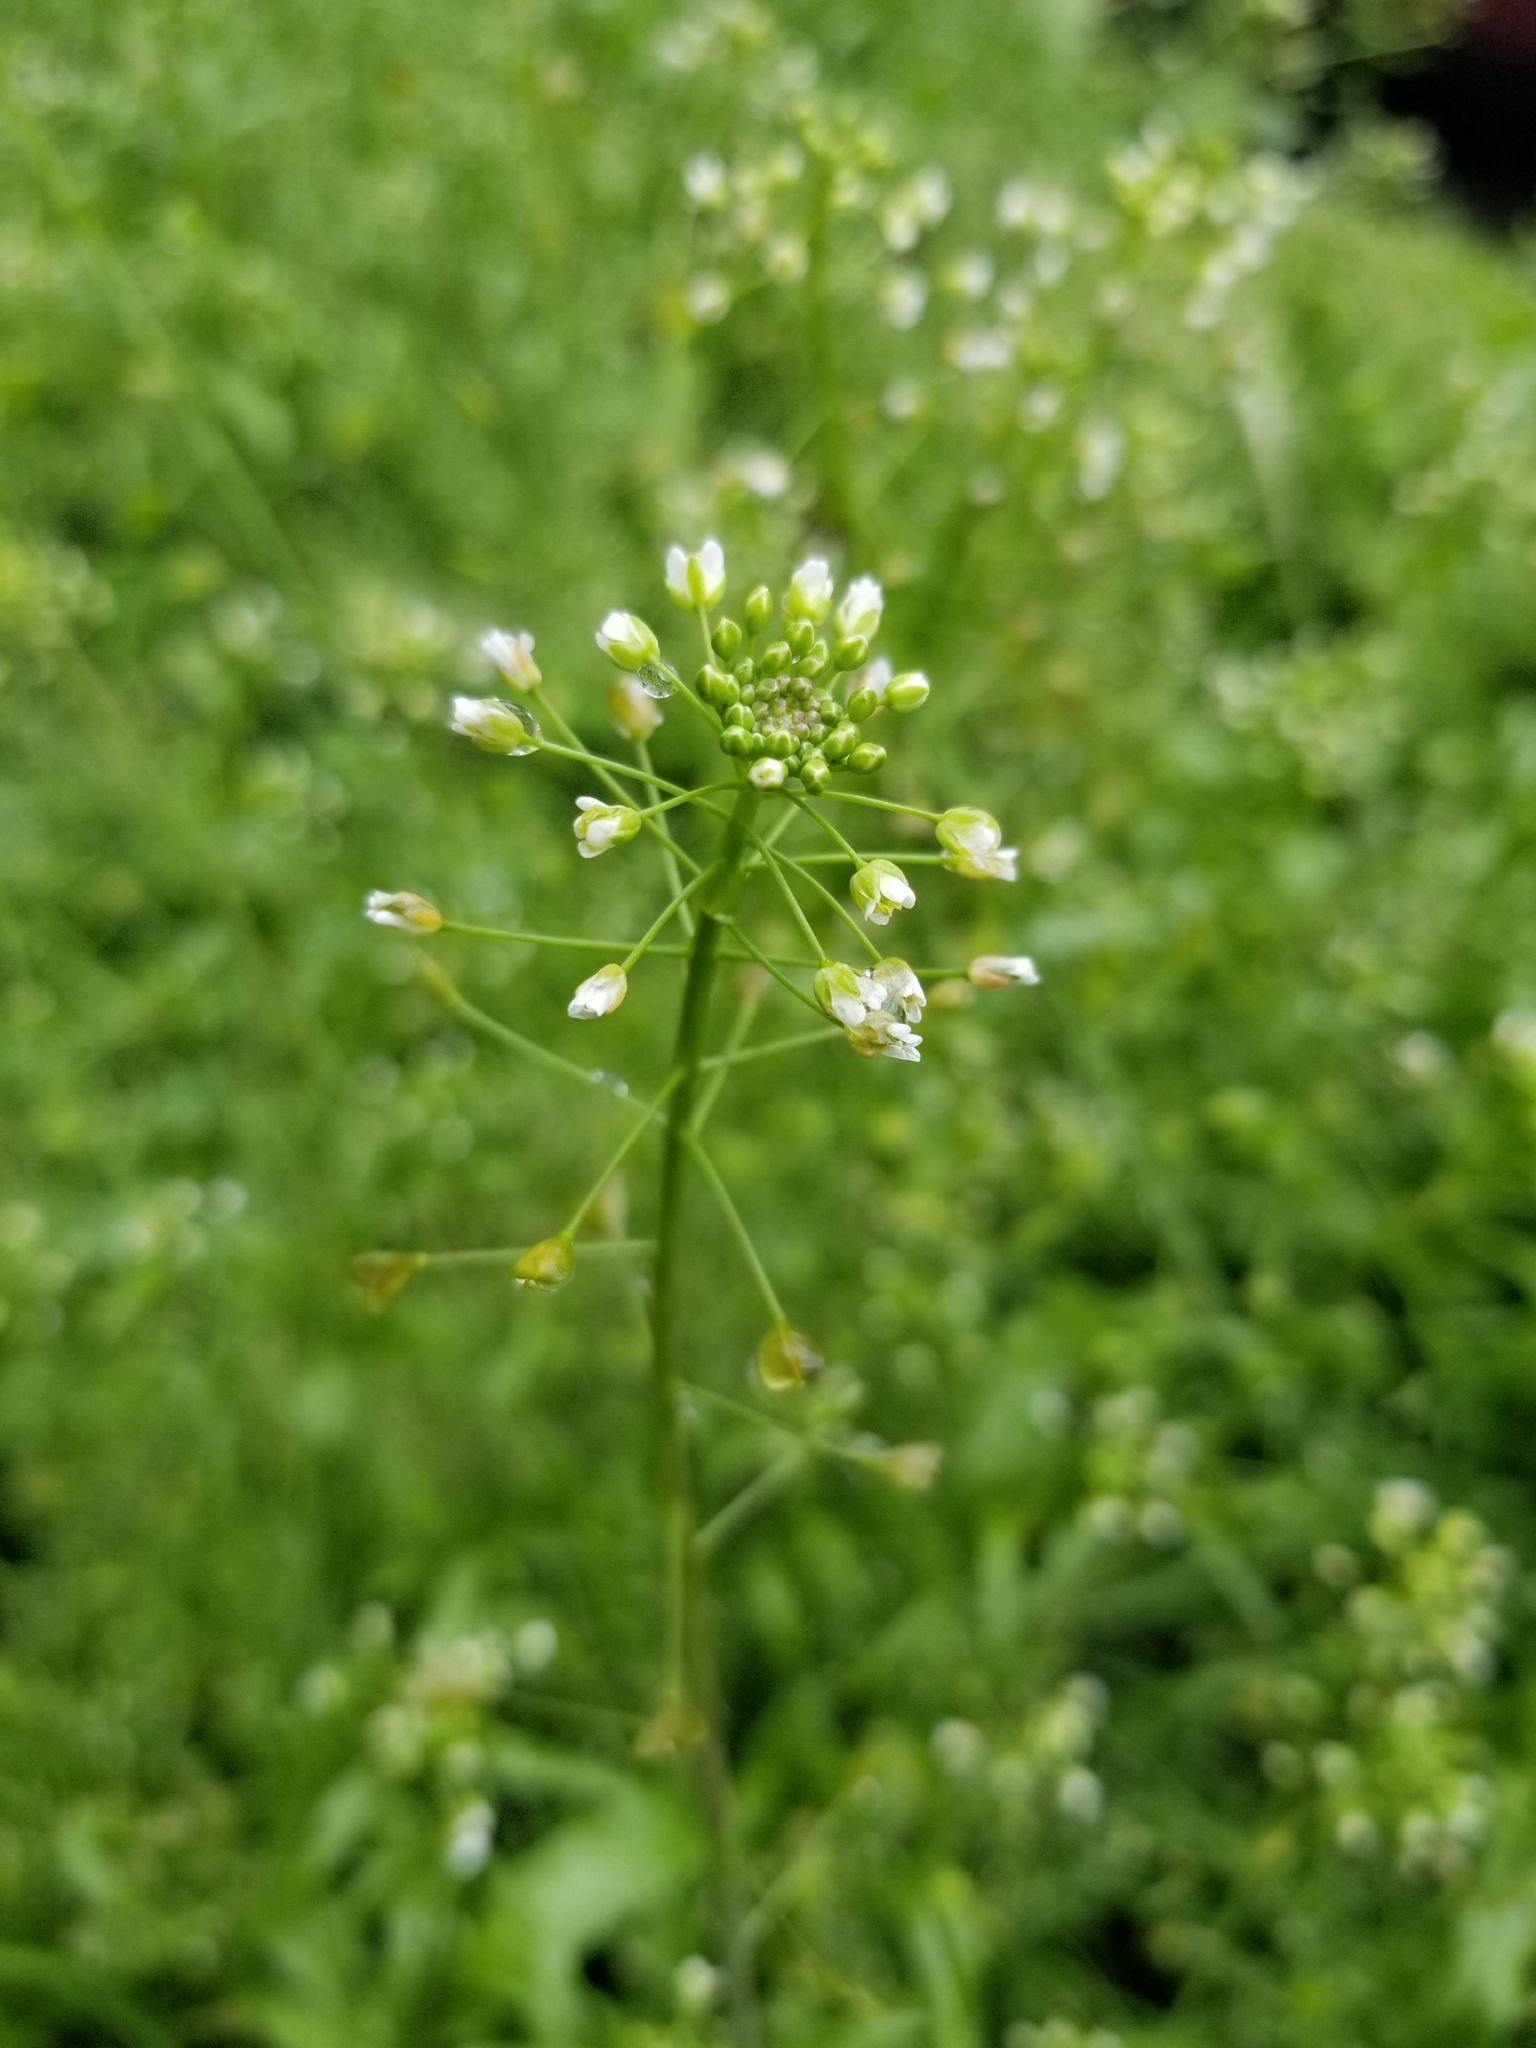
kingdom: Plantae
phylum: Tracheophyta
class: Magnoliopsida
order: Brassicales
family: Brassicaceae
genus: Capsella
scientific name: Capsella bursa-pastoris
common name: Shepherd's purse
